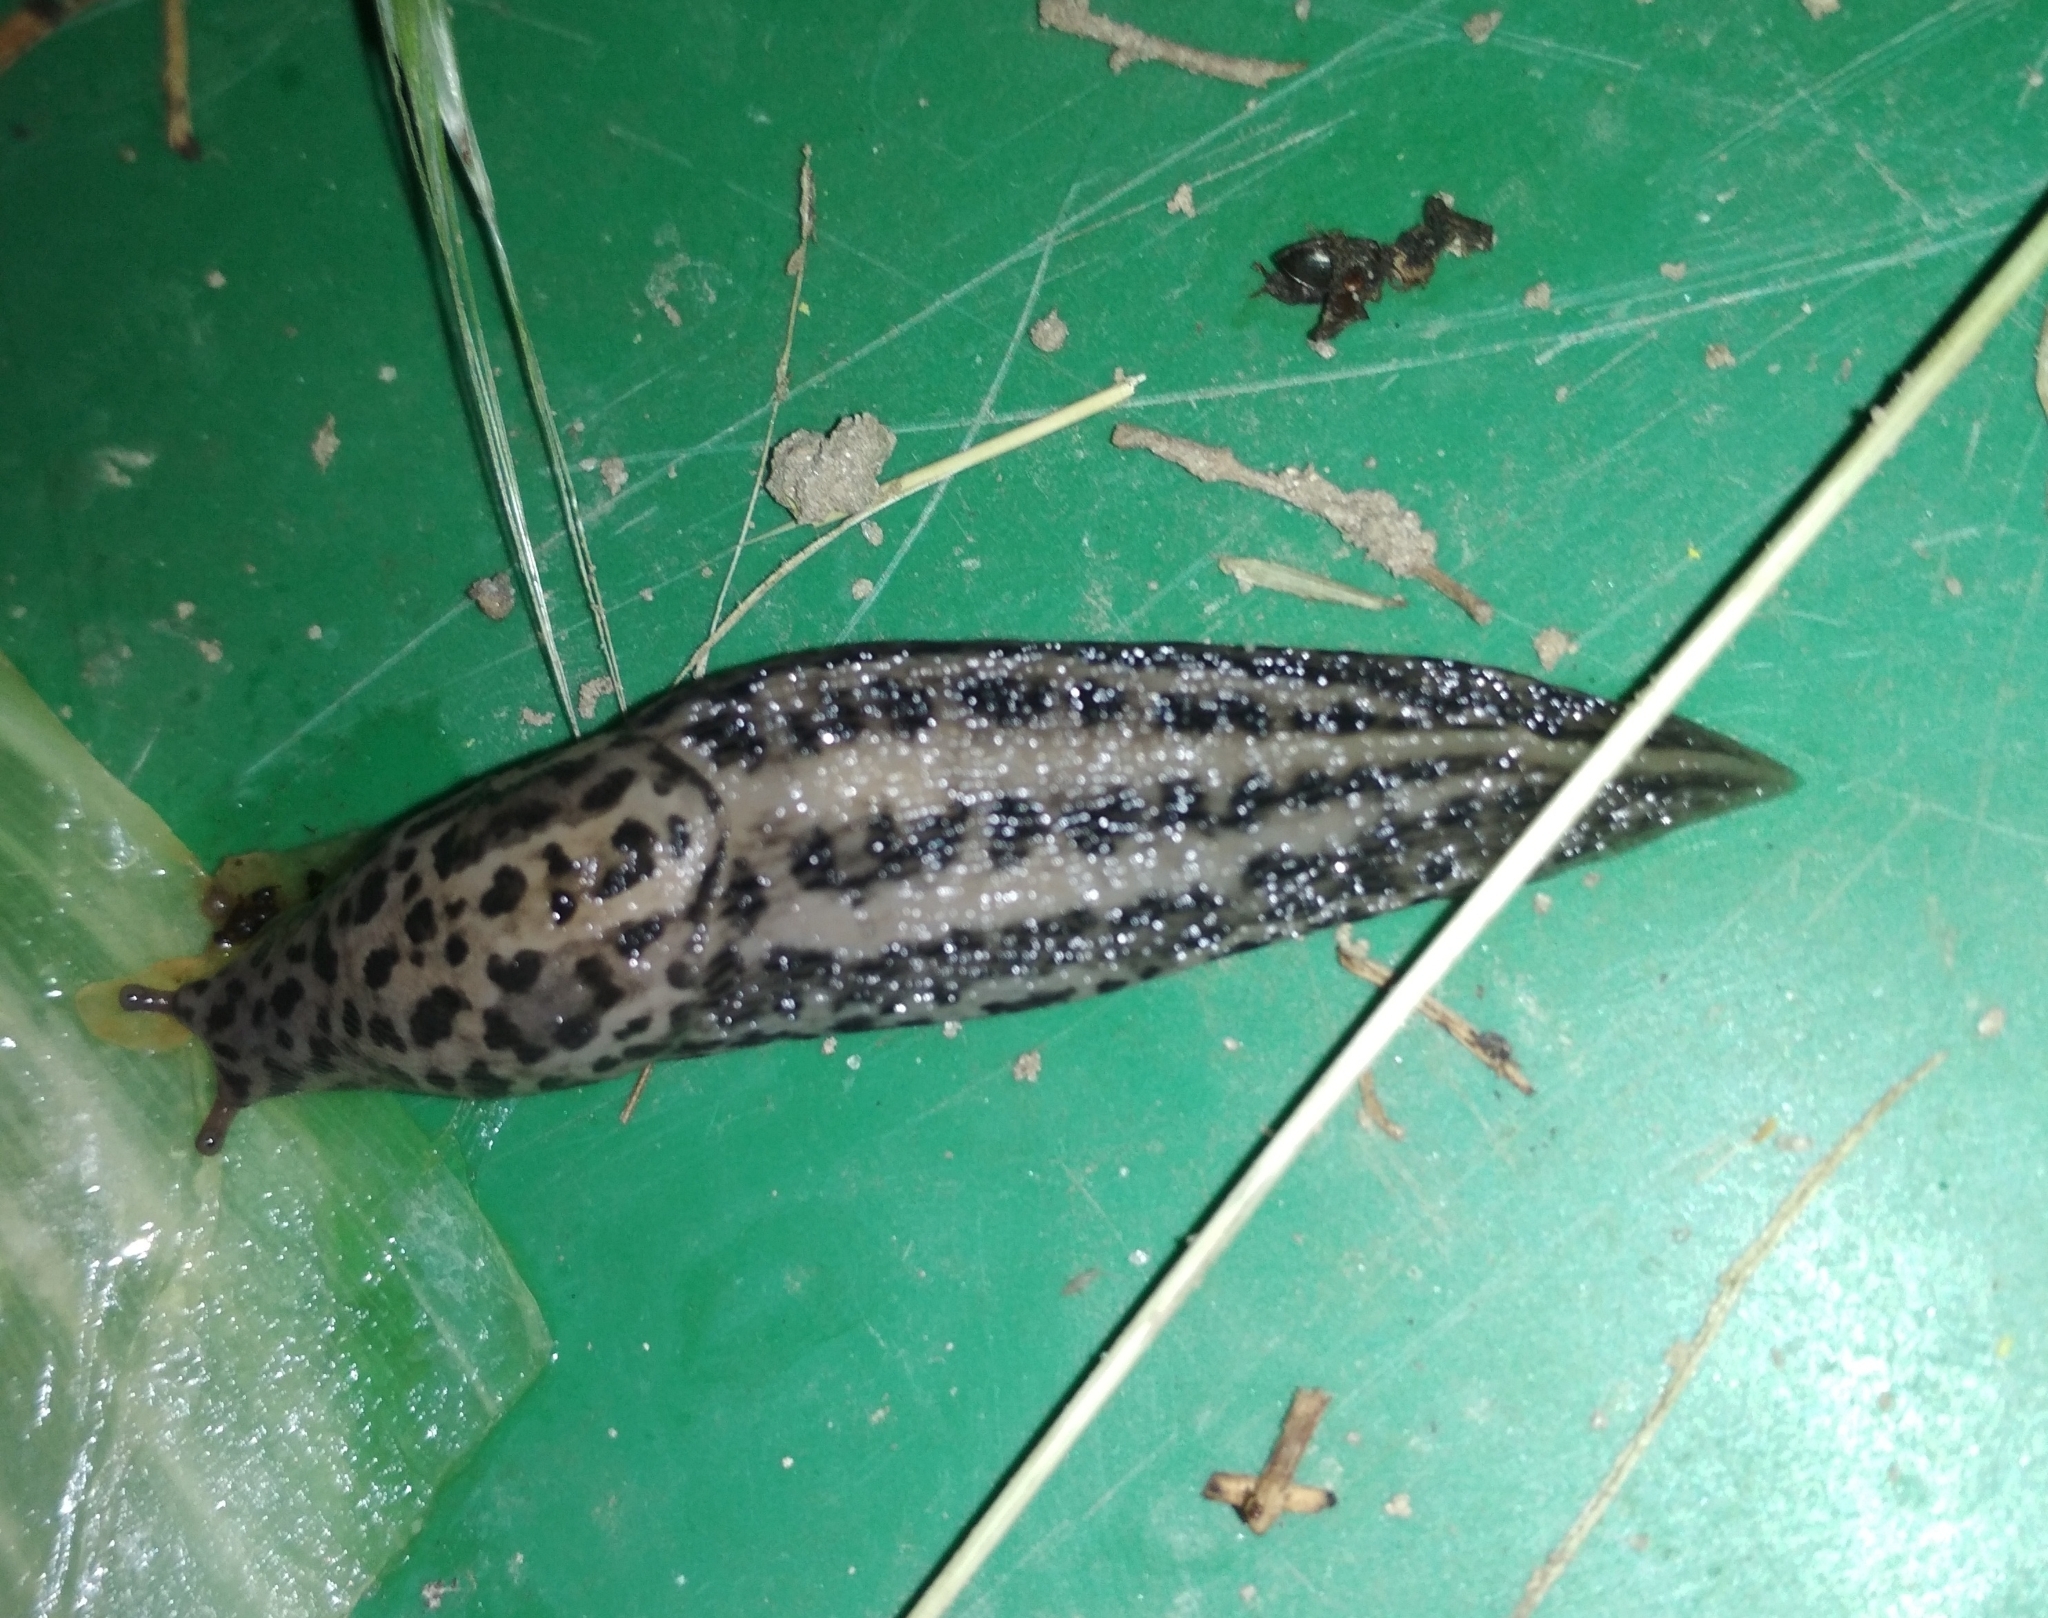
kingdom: Animalia
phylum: Mollusca
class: Gastropoda
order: Stylommatophora
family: Limacidae
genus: Limax
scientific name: Limax maximus
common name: Great grey slug
